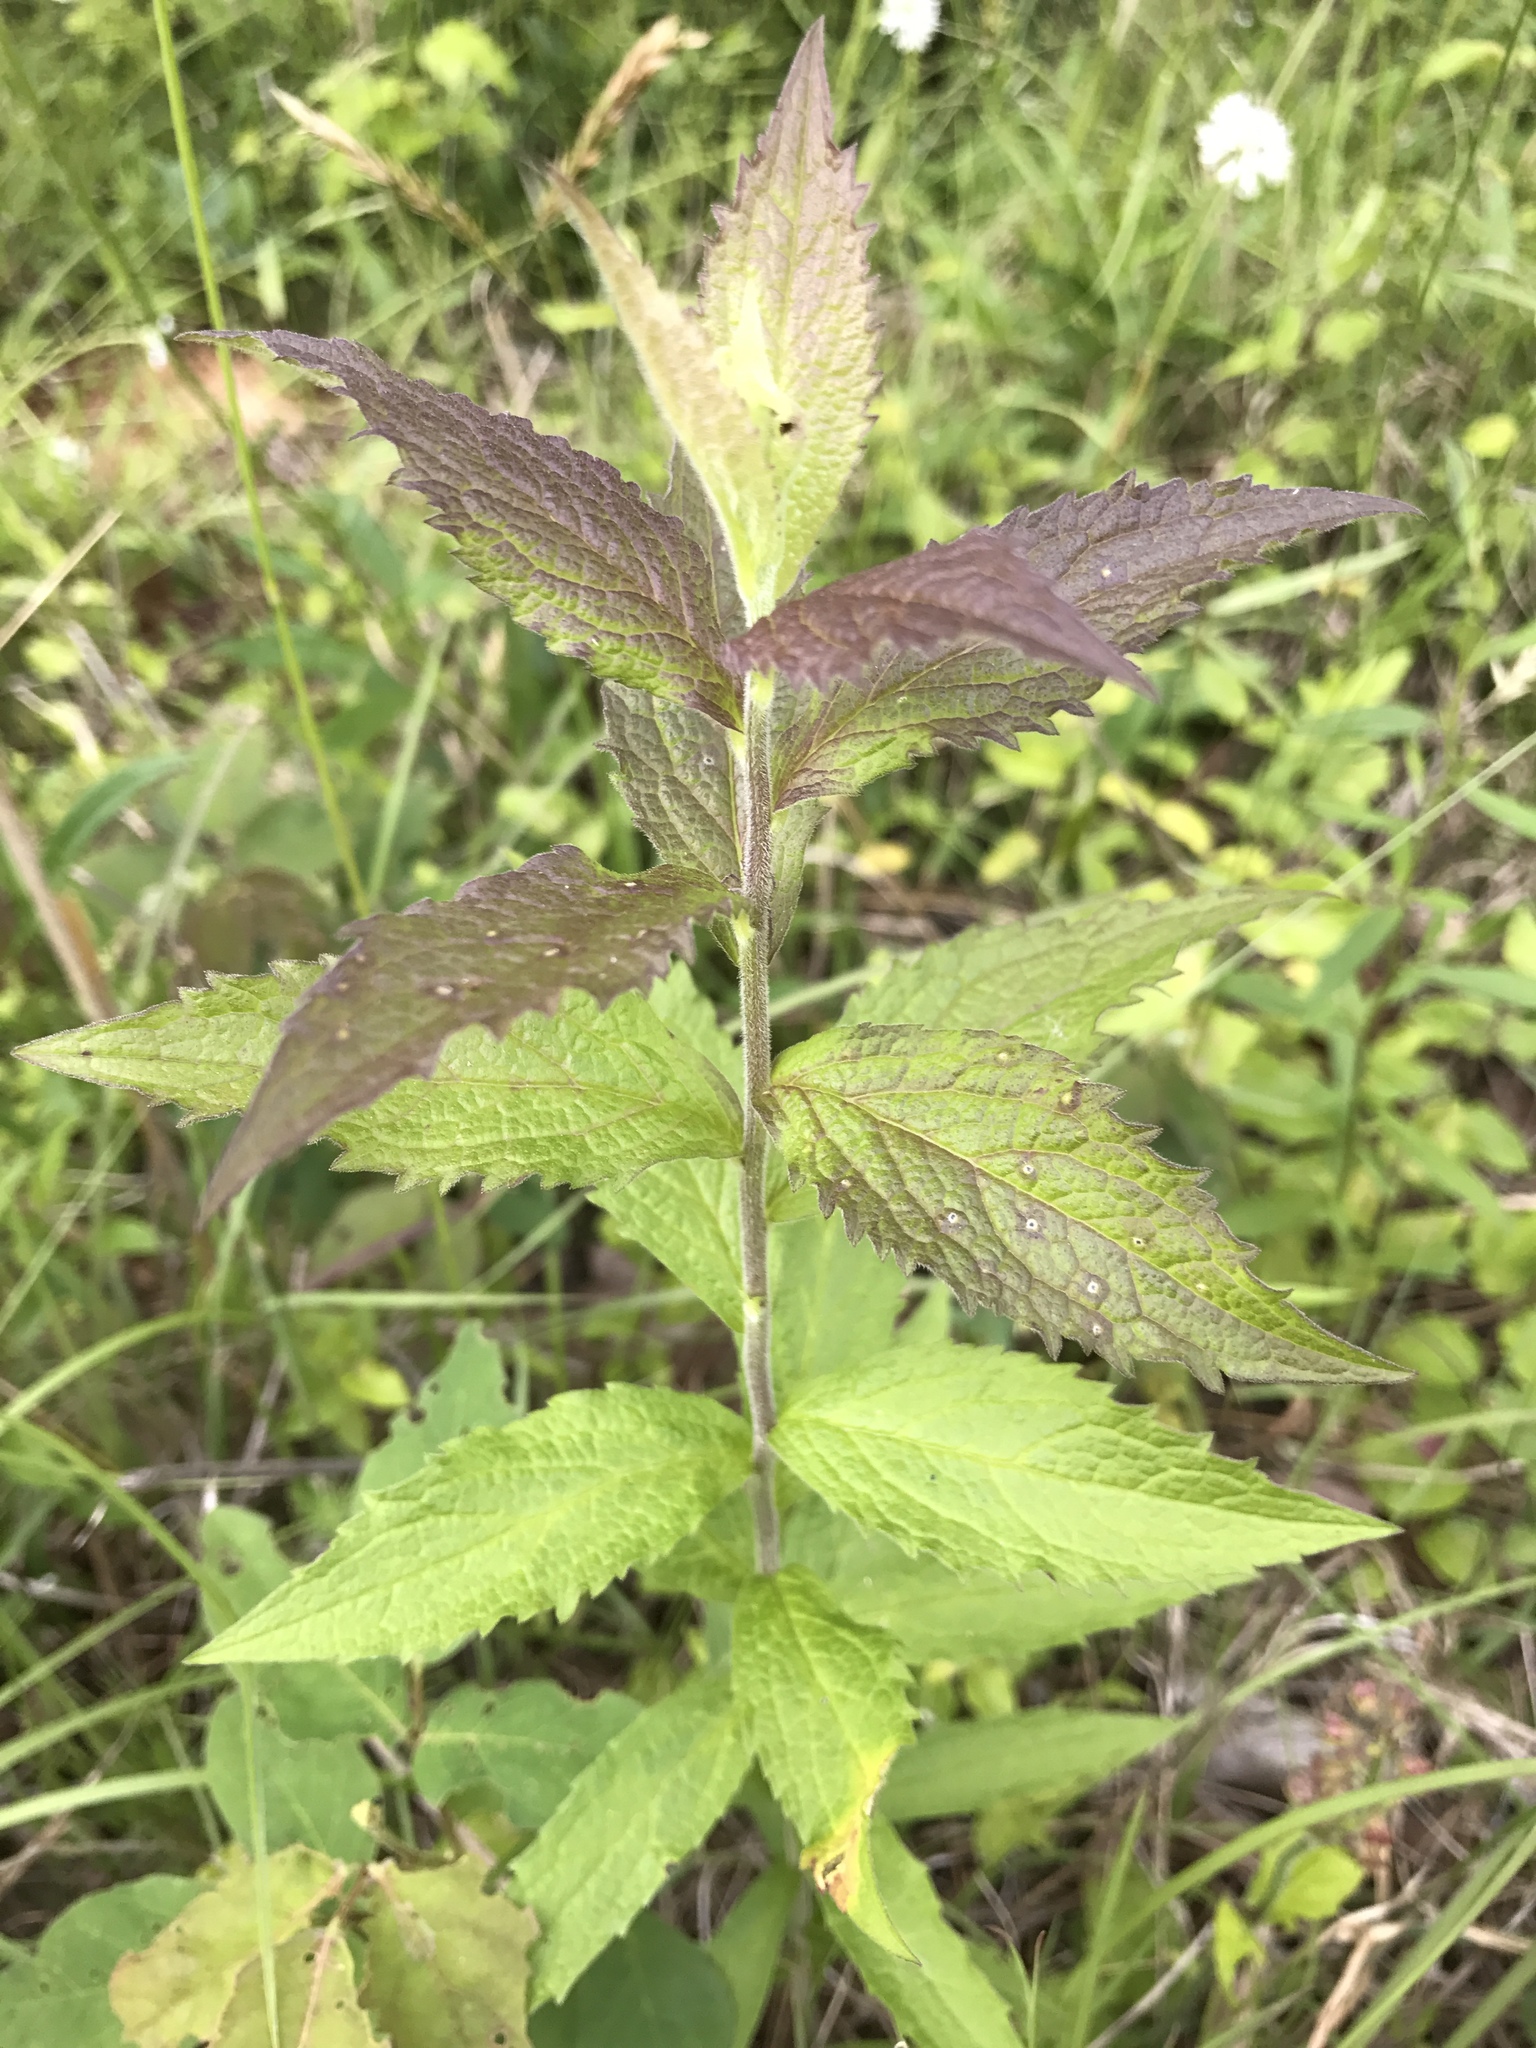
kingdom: Plantae
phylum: Tracheophyta
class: Magnoliopsida
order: Asterales
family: Asteraceae
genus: Solidago
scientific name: Solidago rugosa
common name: Rough-stemmed goldenrod
